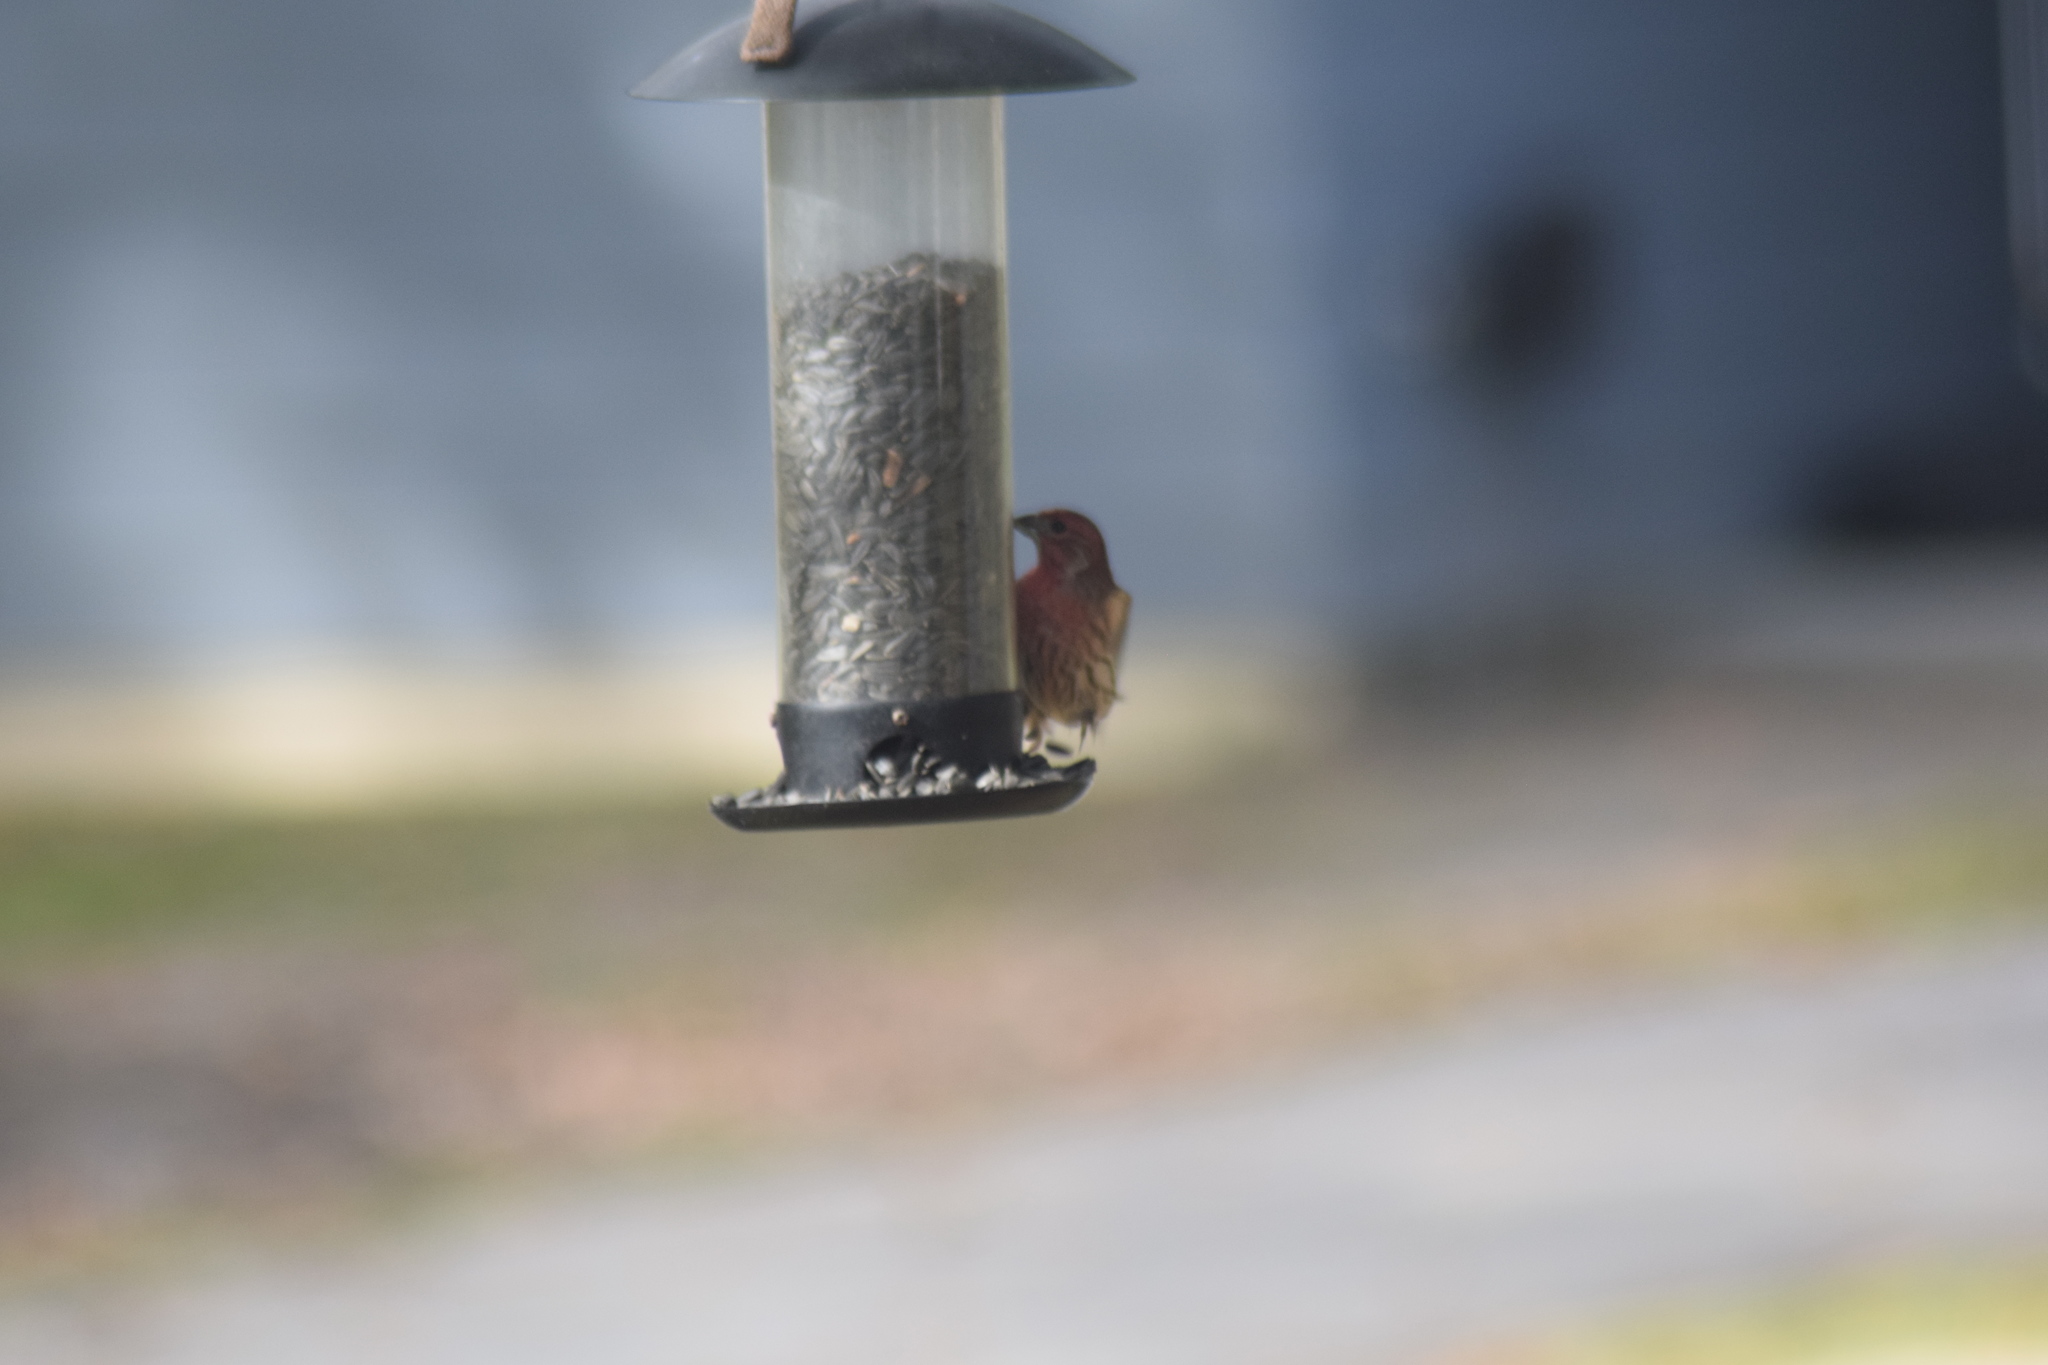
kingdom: Animalia
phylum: Chordata
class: Aves
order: Passeriformes
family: Fringillidae
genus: Haemorhous
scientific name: Haemorhous mexicanus
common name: House finch
